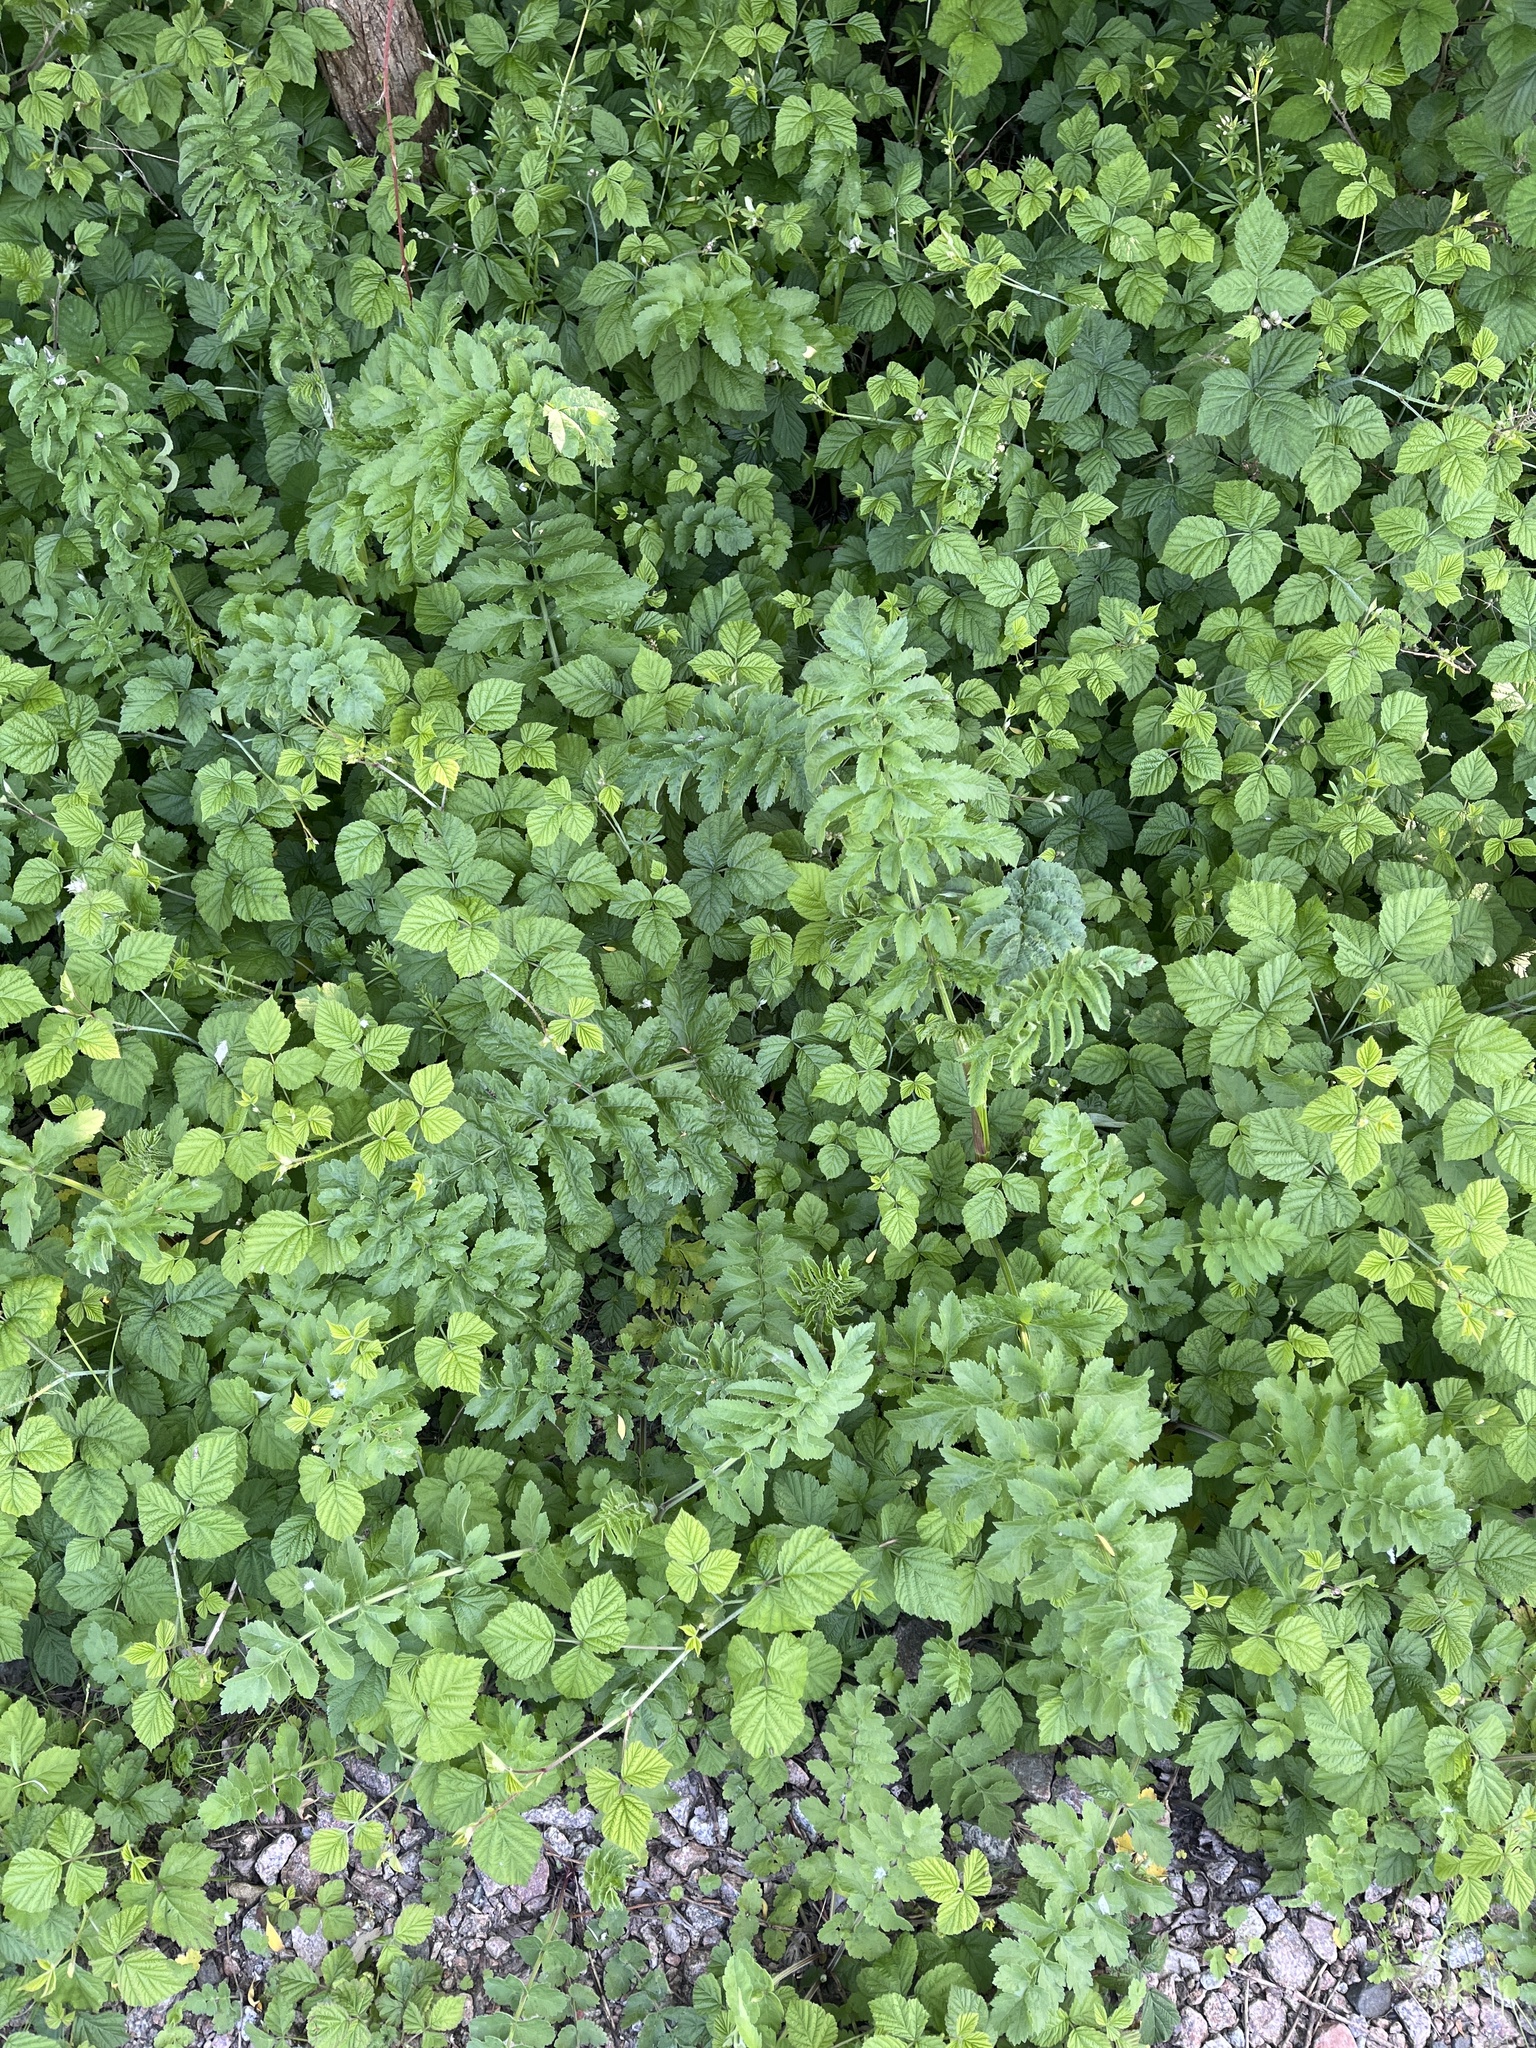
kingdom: Plantae
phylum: Tracheophyta
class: Magnoliopsida
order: Apiales
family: Apiaceae
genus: Pastinaca
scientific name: Pastinaca sativa
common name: Wild parsnip
